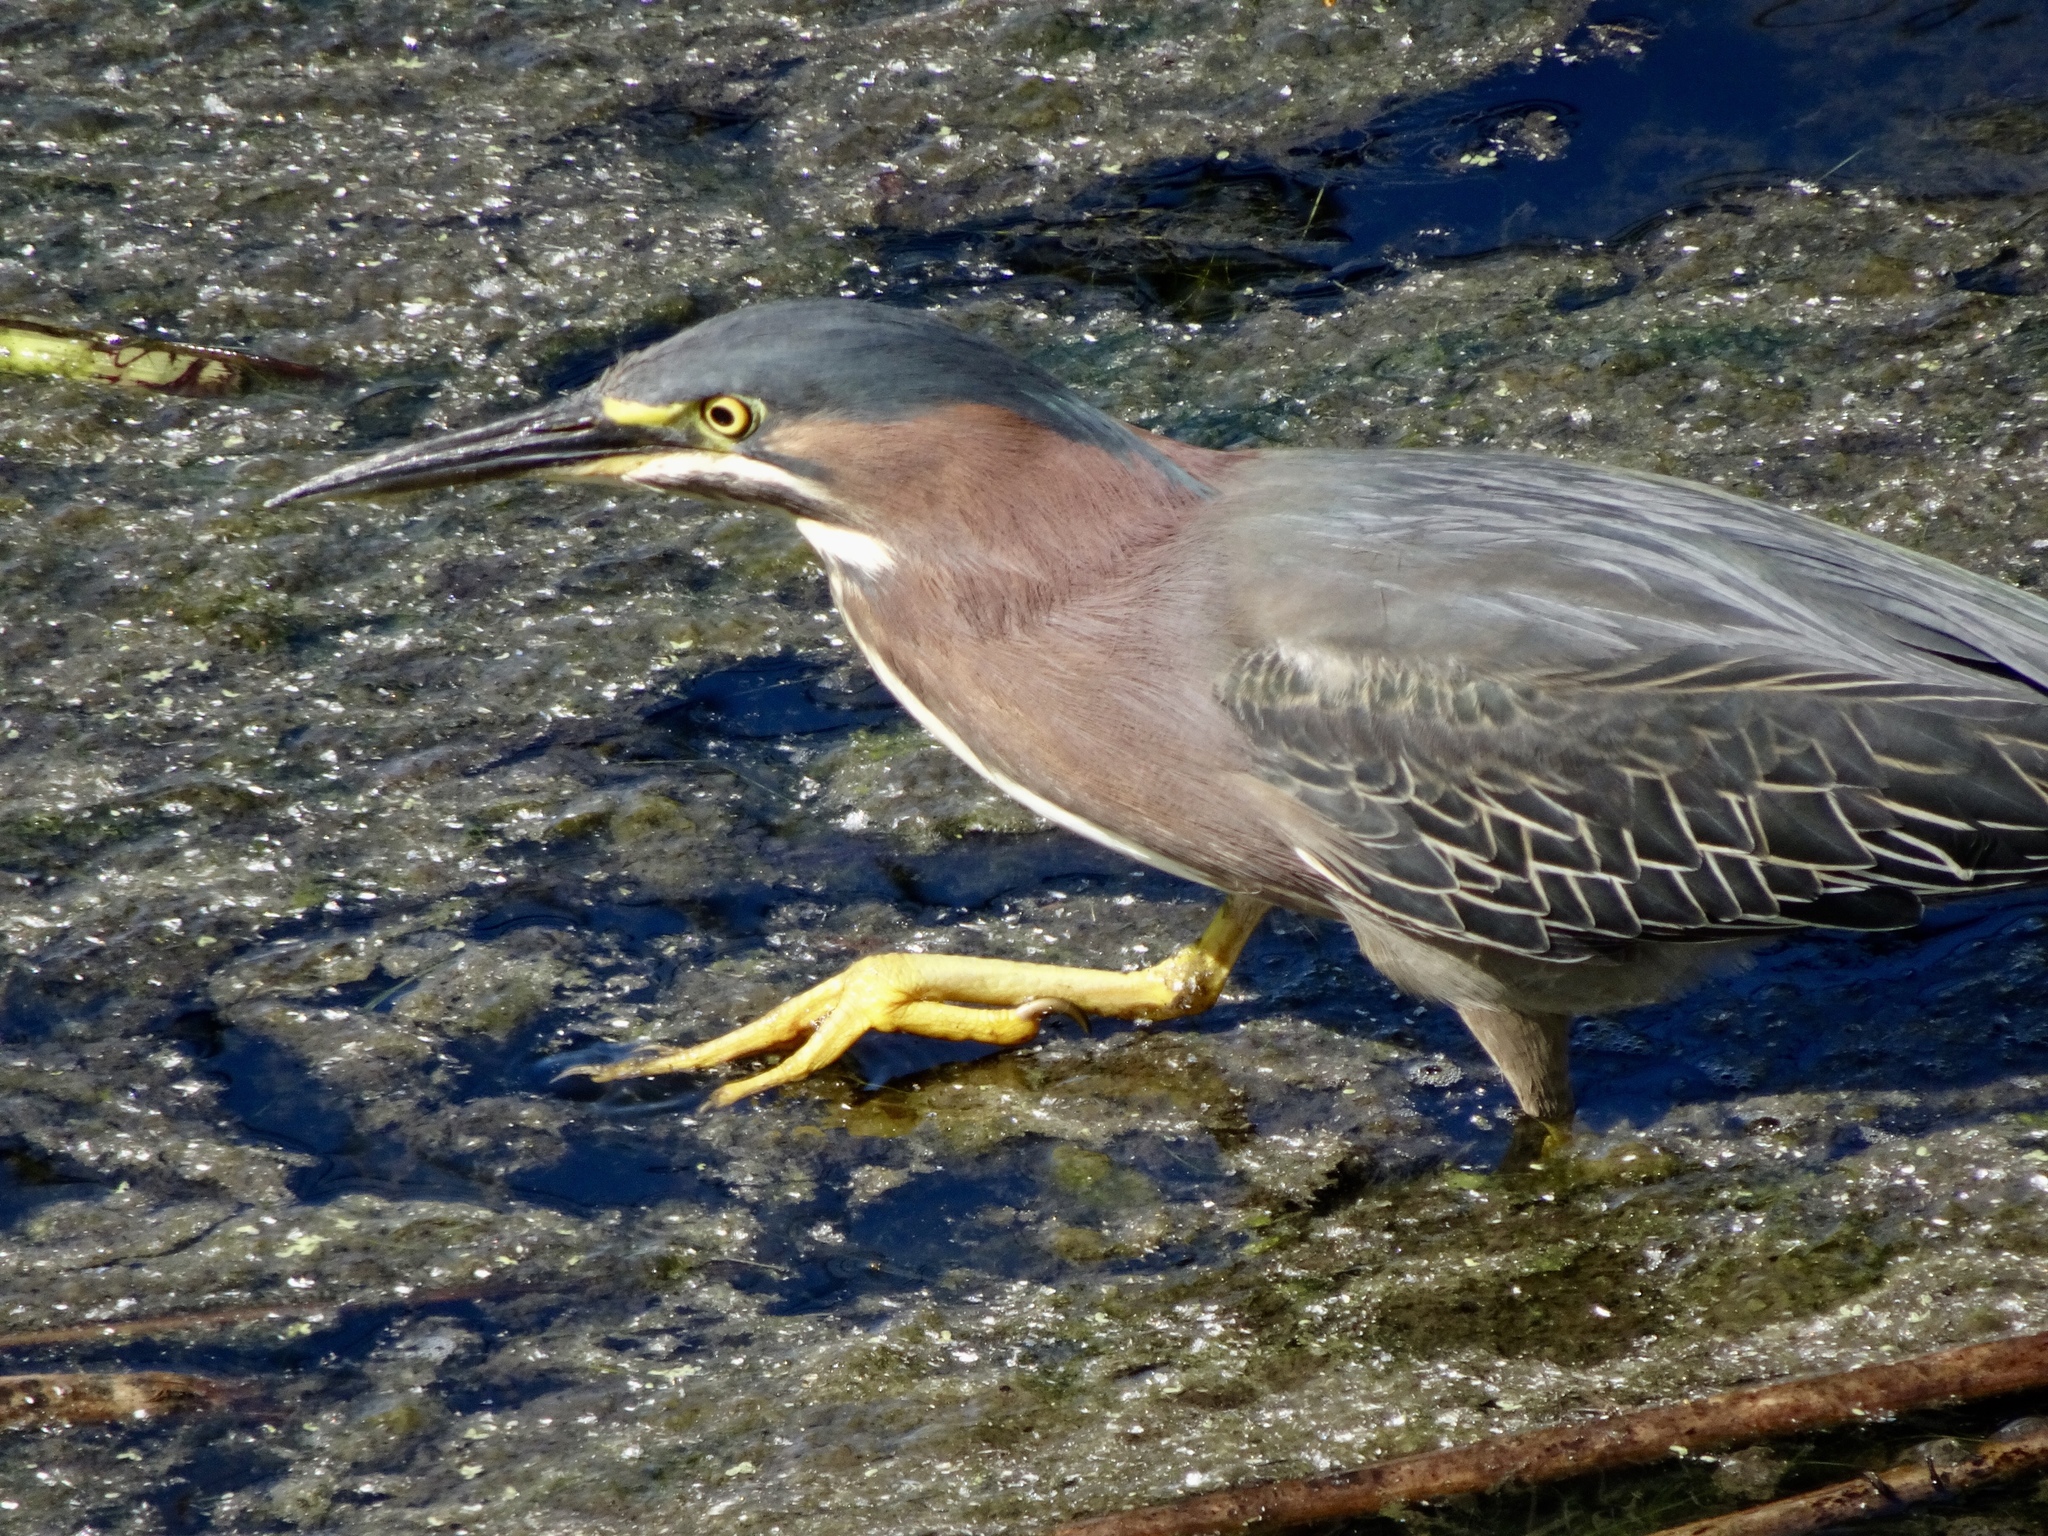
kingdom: Animalia
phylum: Chordata
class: Aves
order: Pelecaniformes
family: Ardeidae
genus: Butorides
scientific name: Butorides virescens
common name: Green heron
